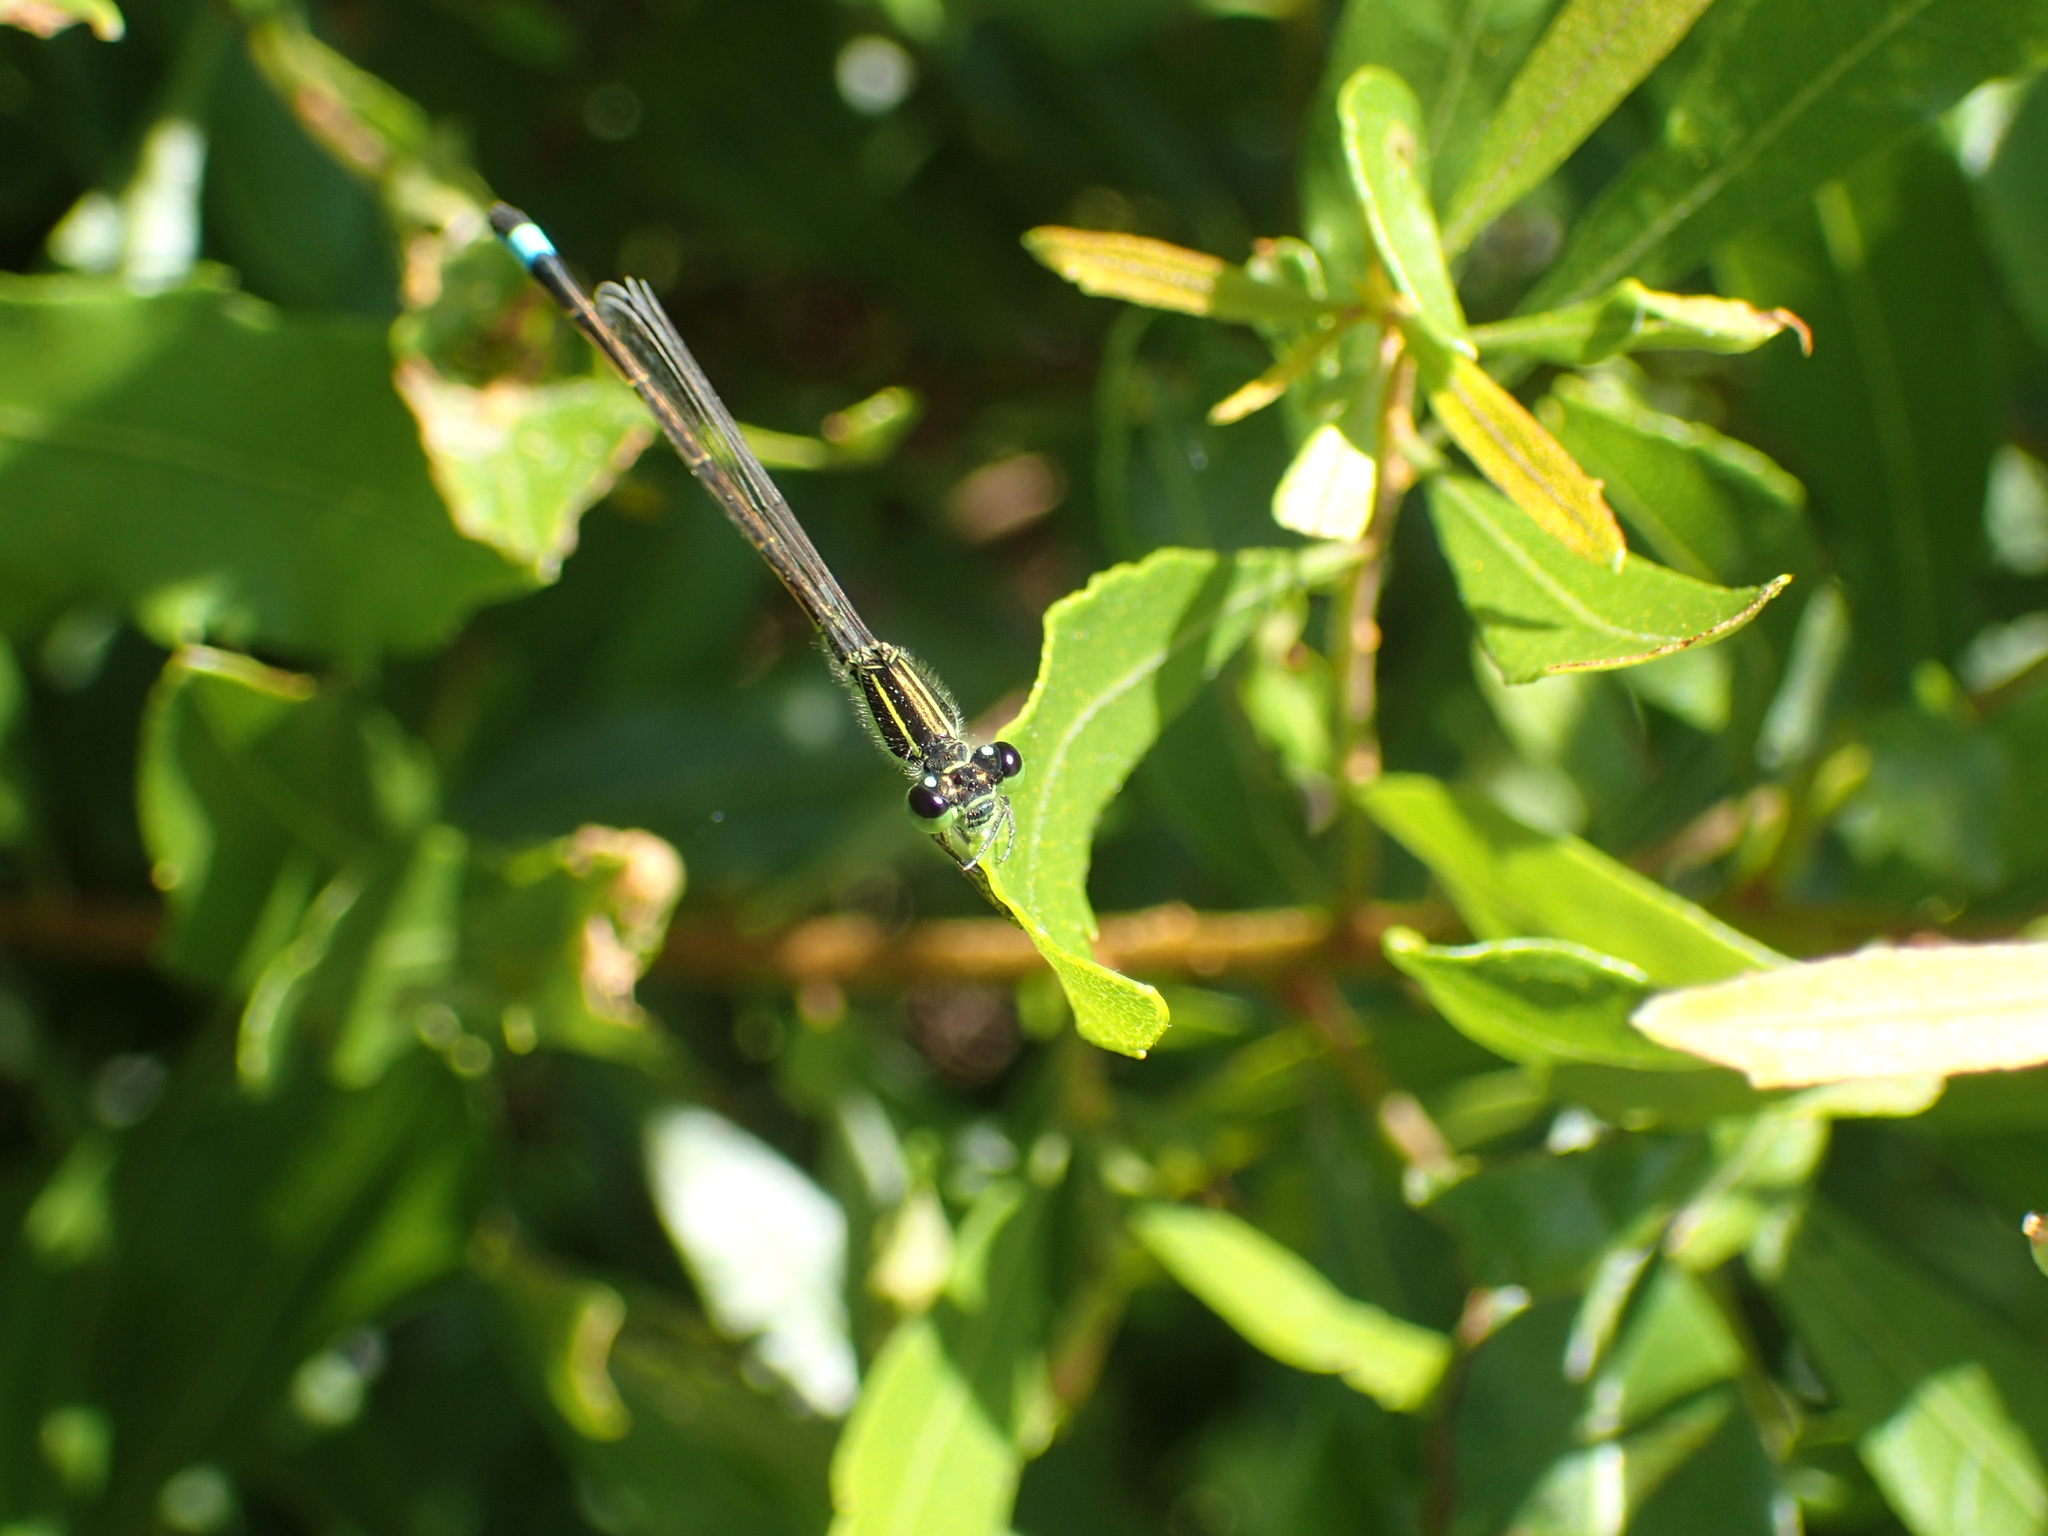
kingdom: Animalia
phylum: Arthropoda
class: Insecta
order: Odonata
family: Coenagrionidae
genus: Ischnura
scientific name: Ischnura ramburii
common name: Rambur's forktail
